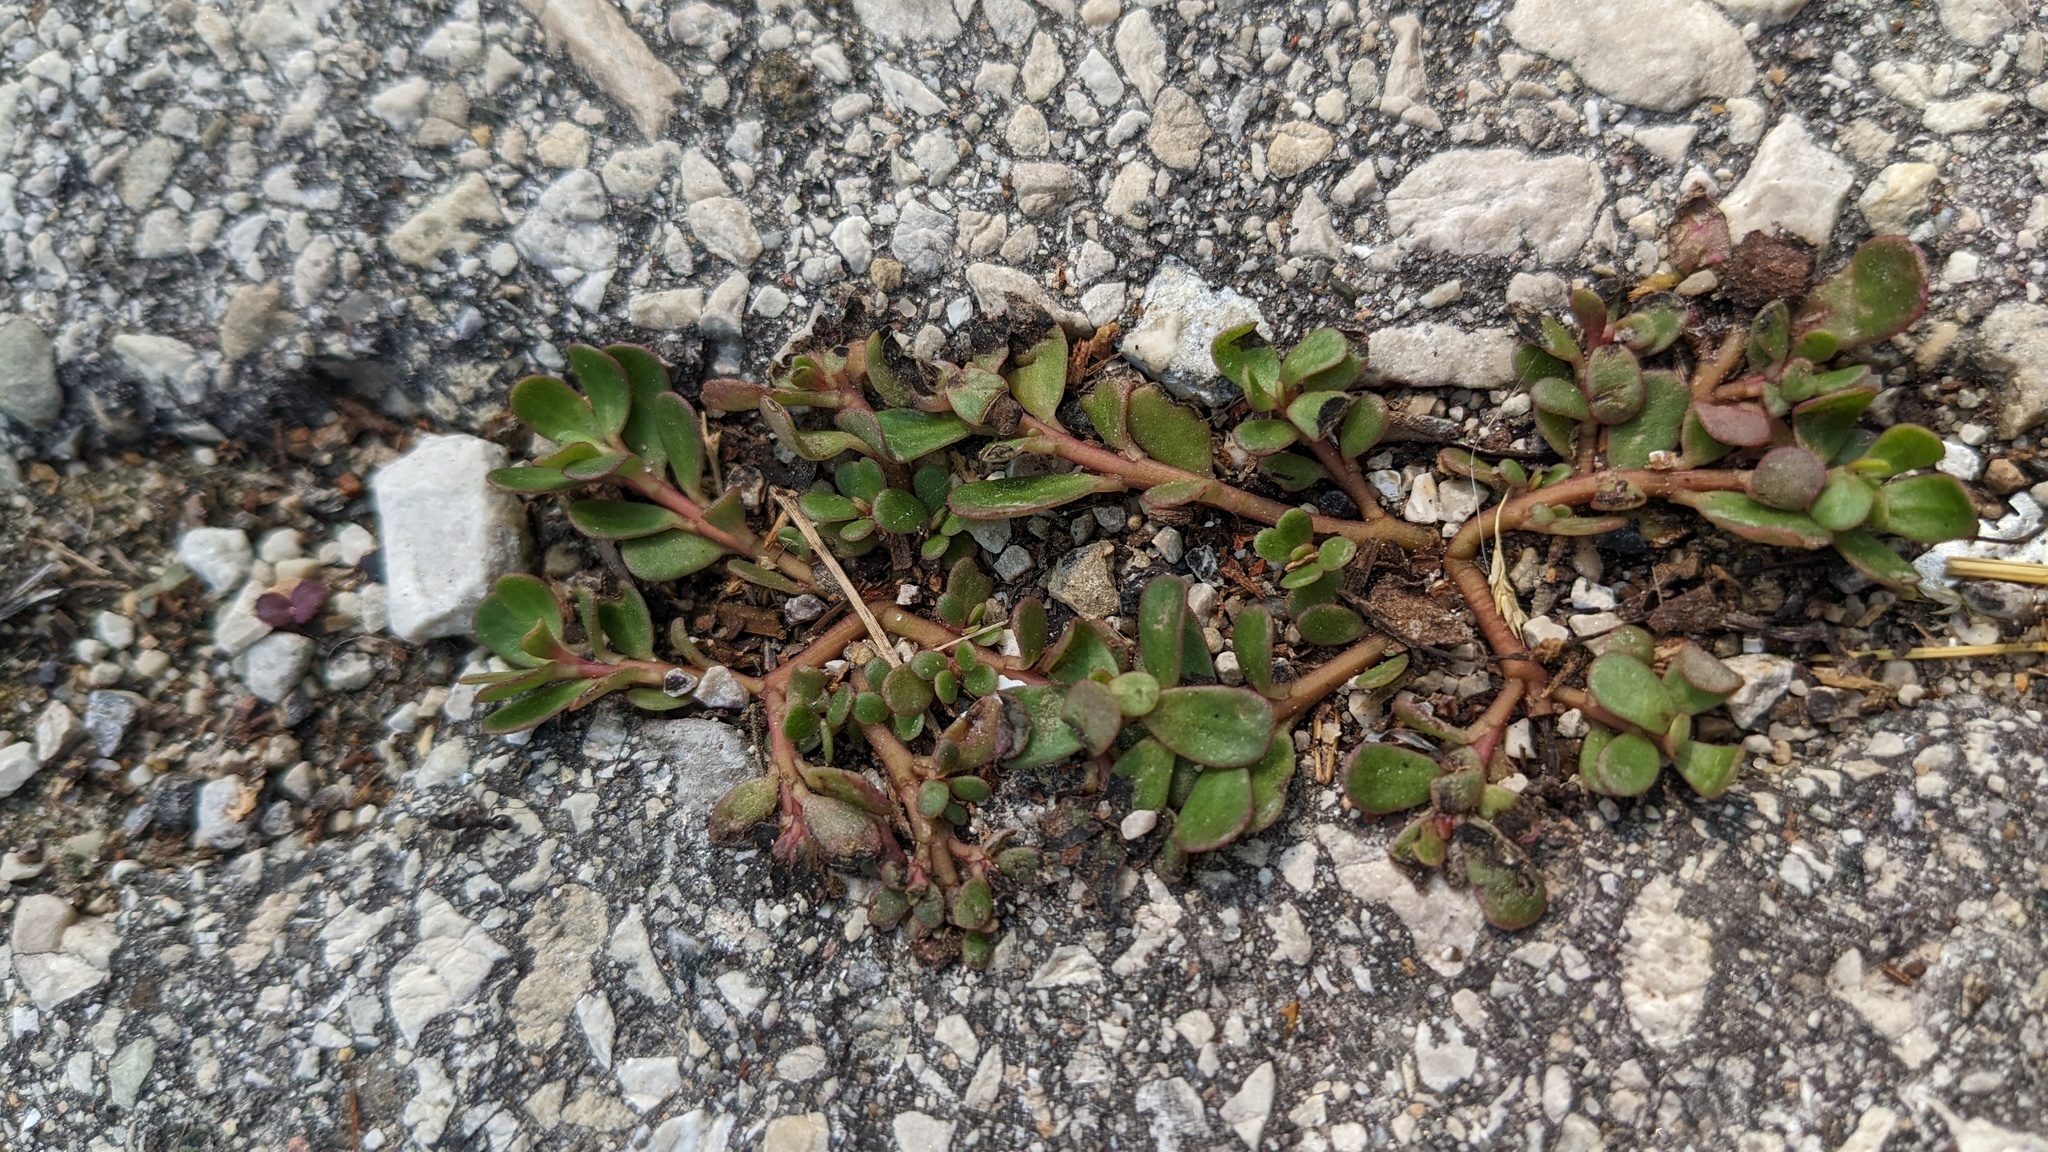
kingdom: Plantae
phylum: Tracheophyta
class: Magnoliopsida
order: Caryophyllales
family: Portulacaceae
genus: Portulaca
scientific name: Portulaca oleracea
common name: Common purslane
